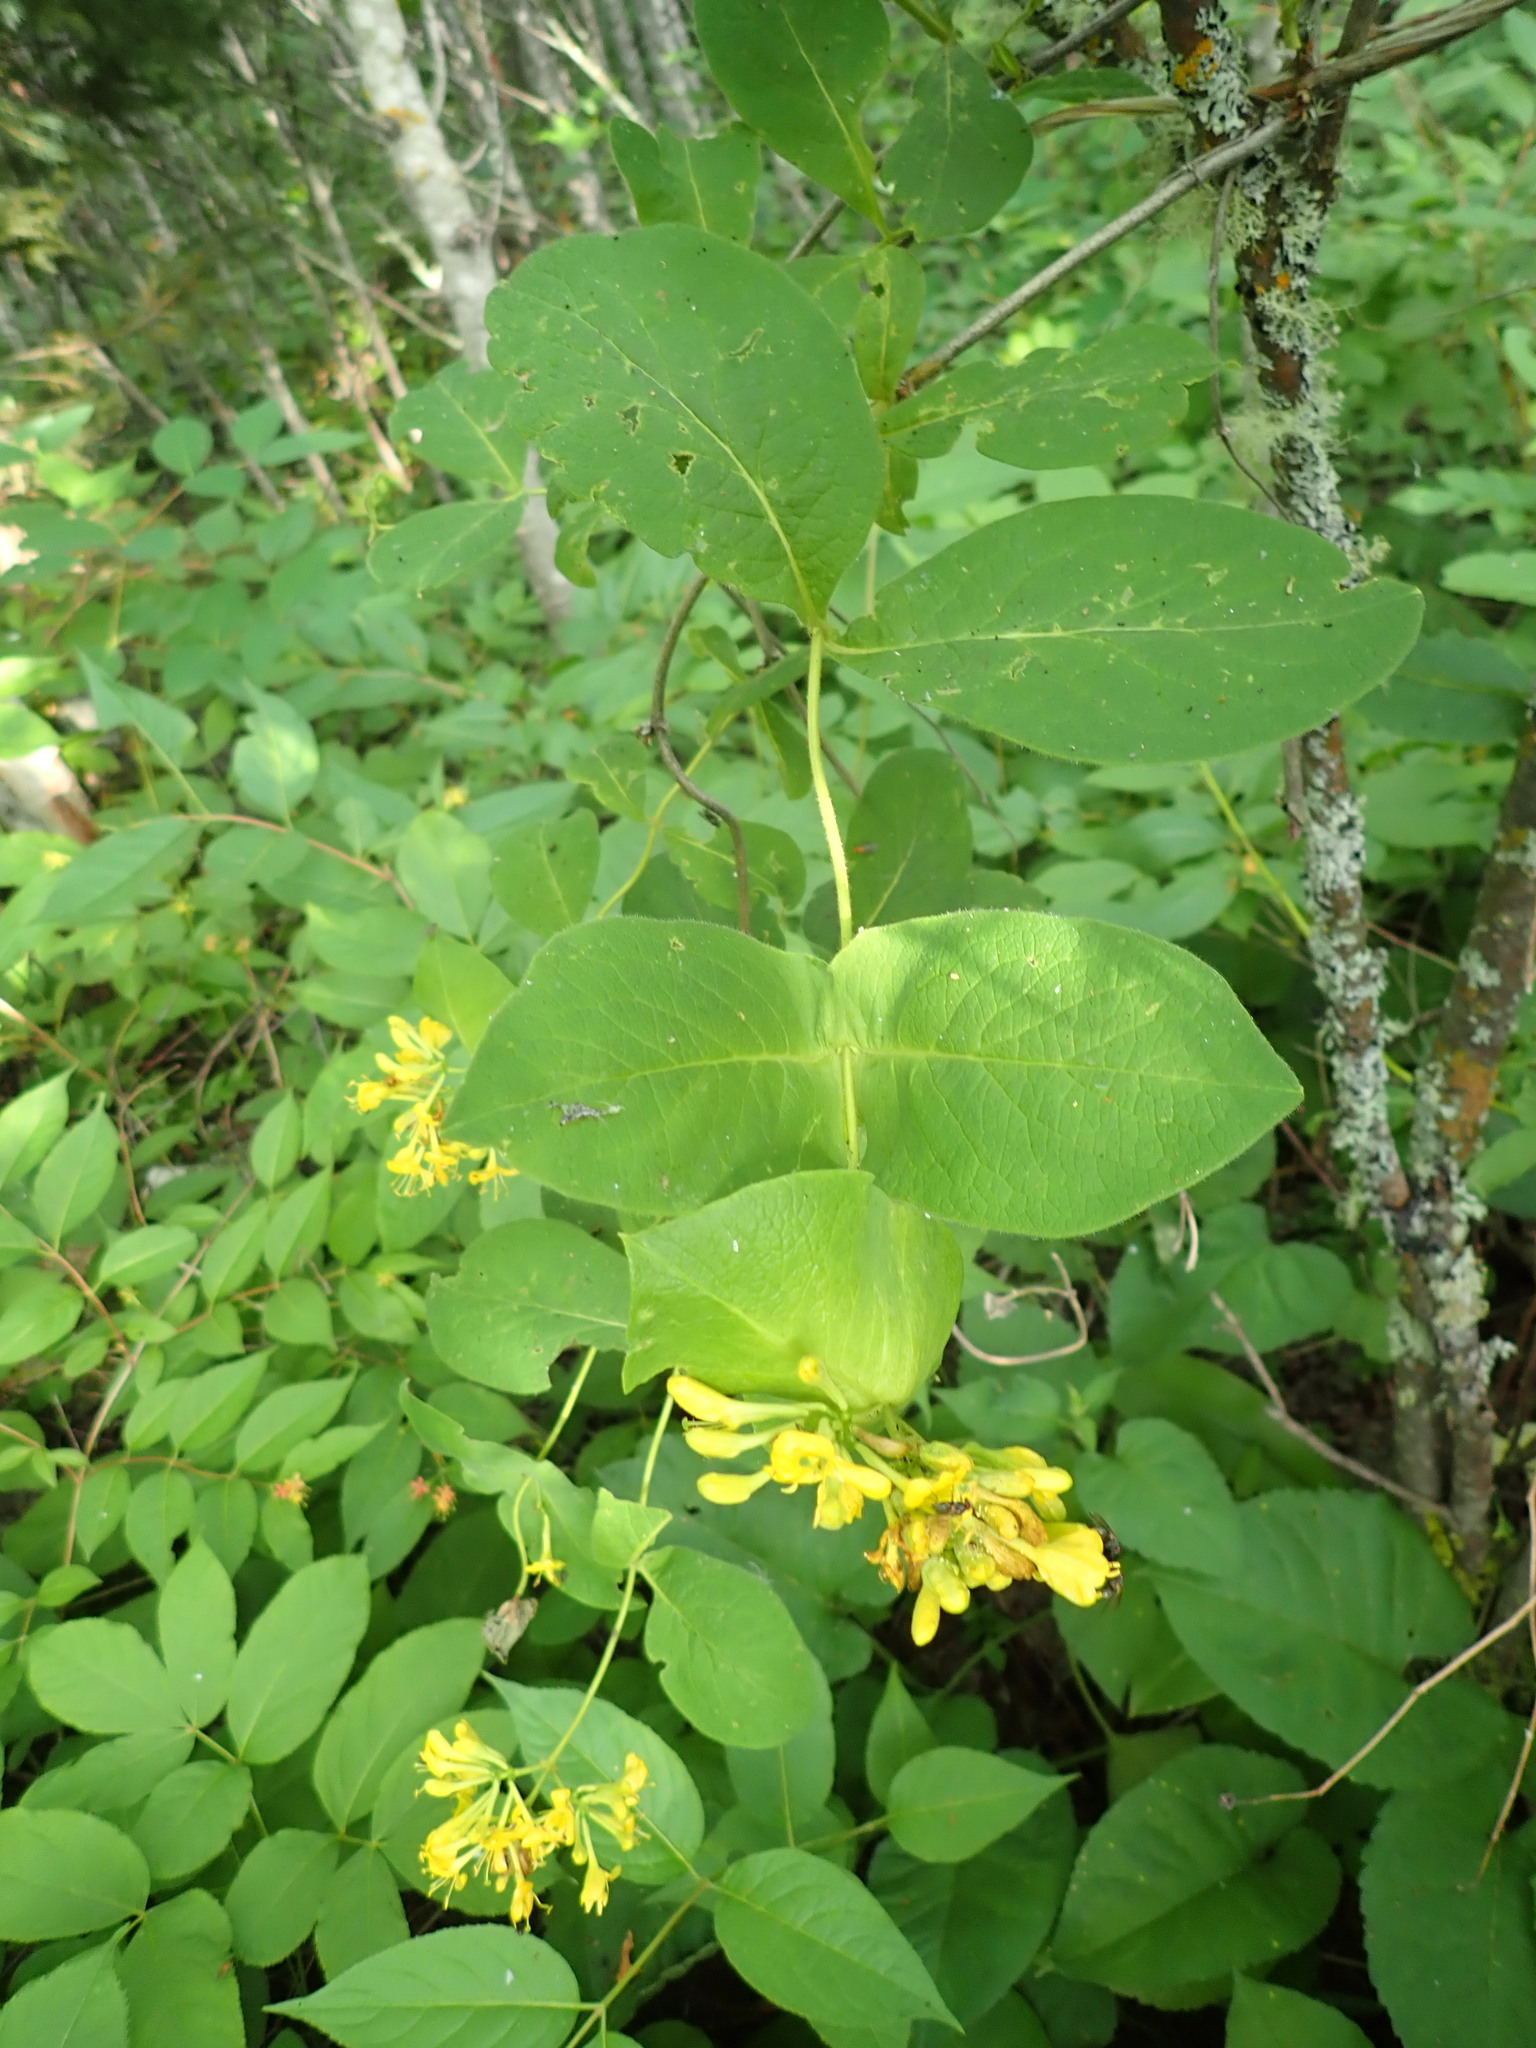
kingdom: Plantae
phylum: Tracheophyta
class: Magnoliopsida
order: Dipsacales
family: Caprifoliaceae
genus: Lonicera
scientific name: Lonicera hirsuta
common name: Hairy honeysuckle
